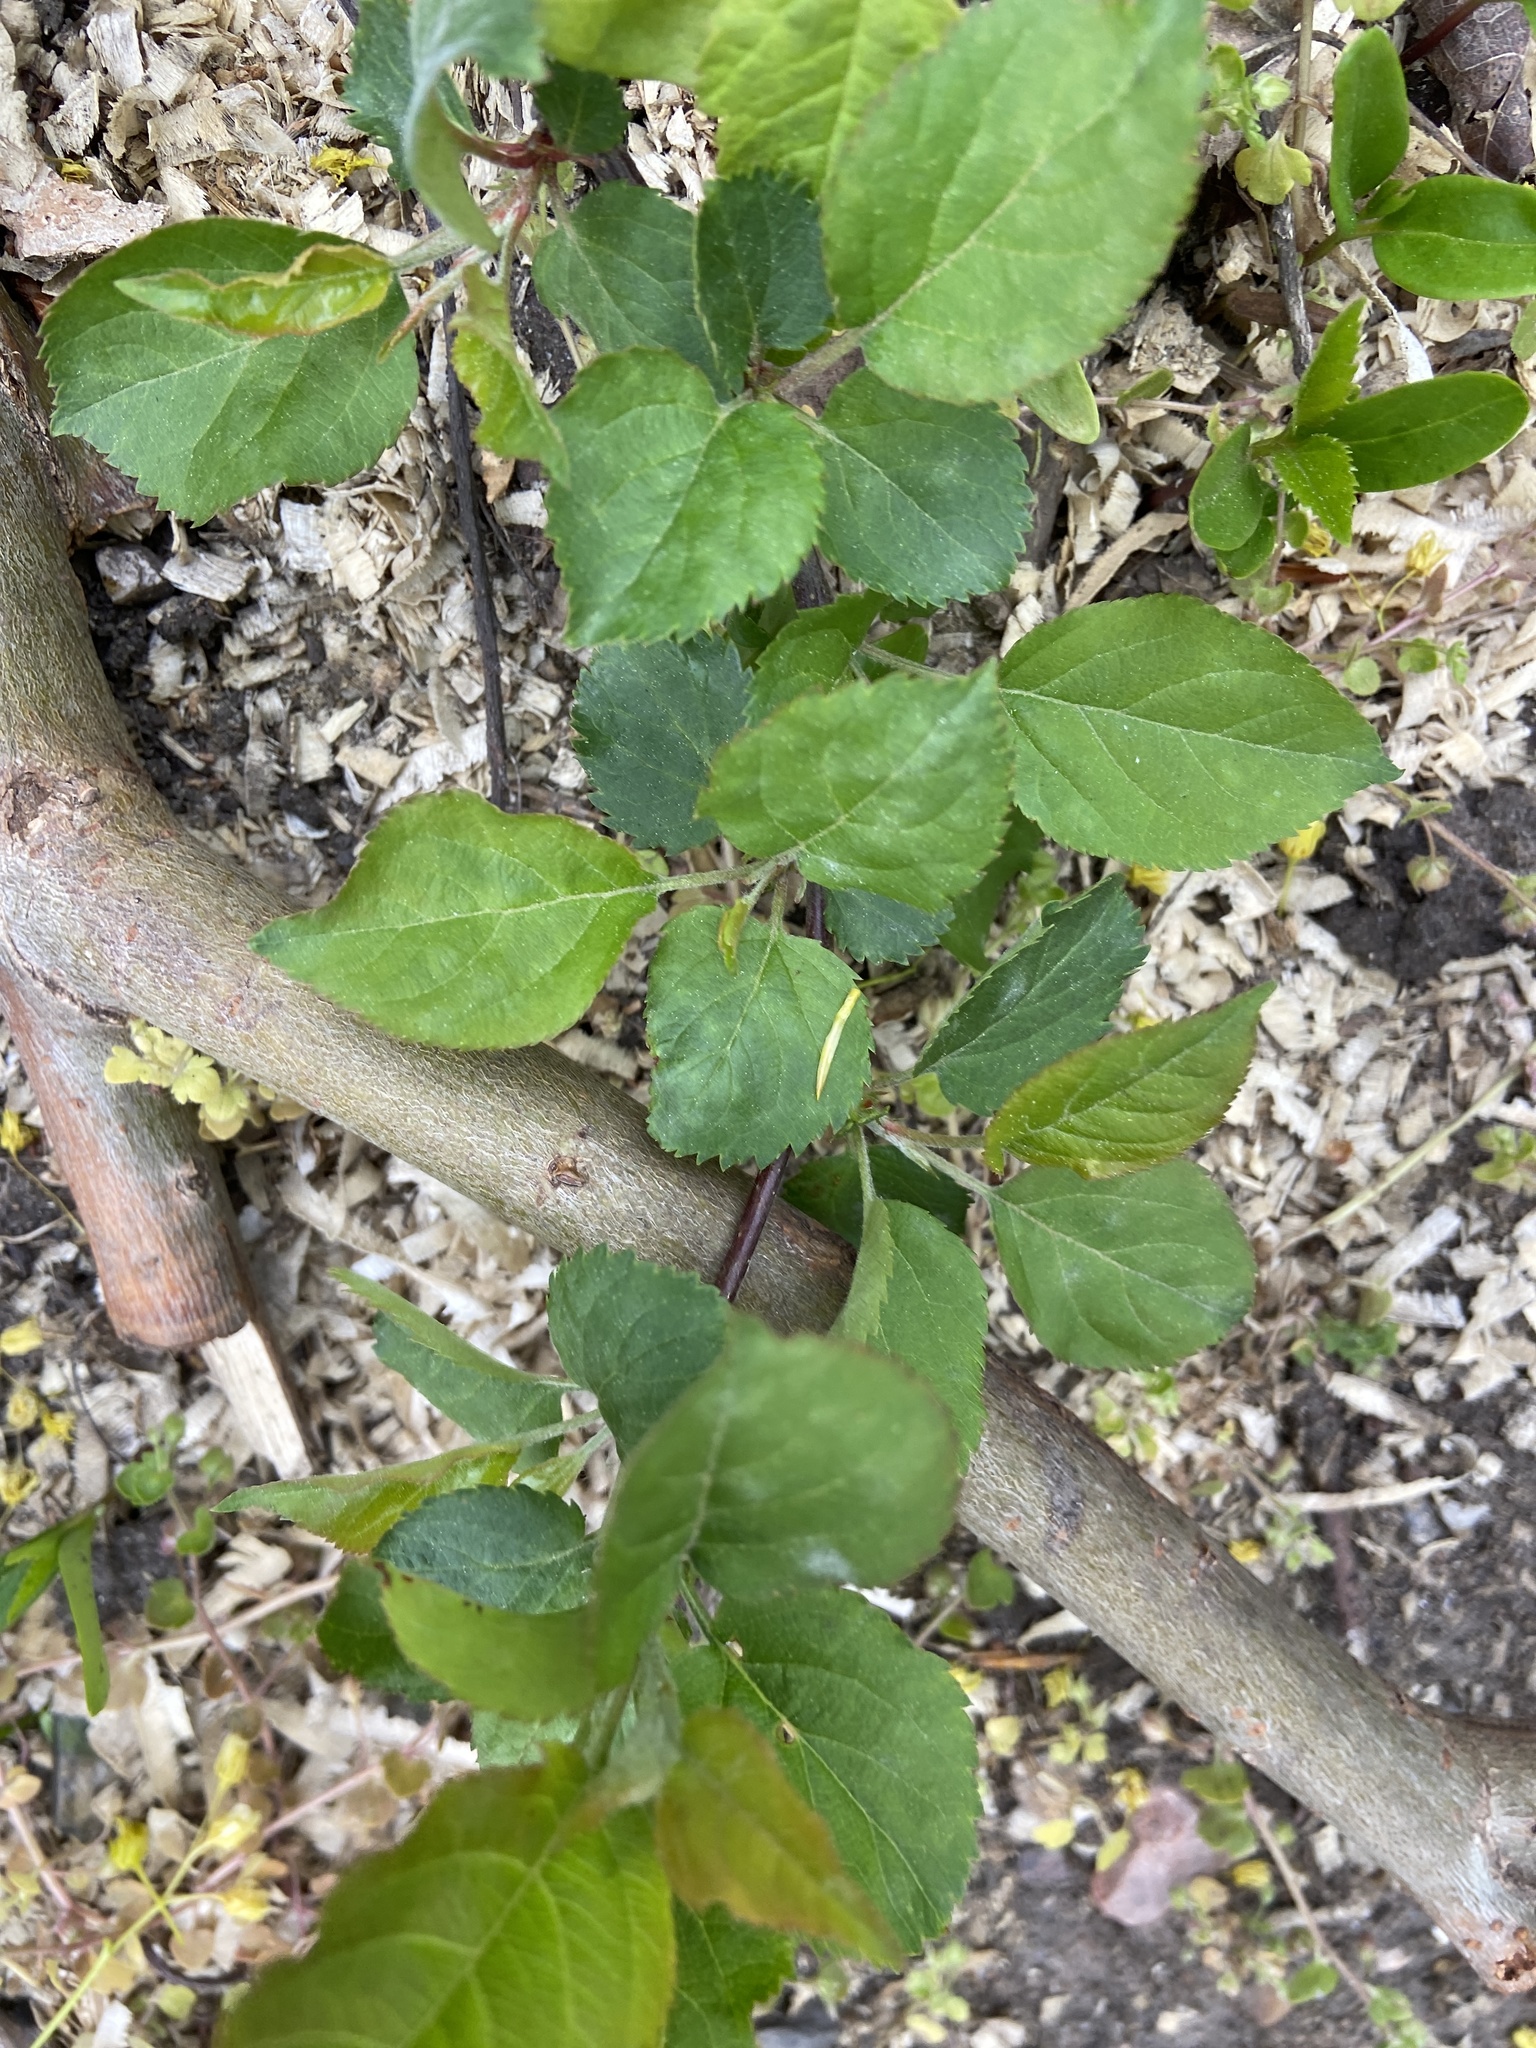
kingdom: Plantae
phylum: Tracheophyta
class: Magnoliopsida
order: Rosales
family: Rosaceae
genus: Malus
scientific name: Malus domestica
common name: Apple
